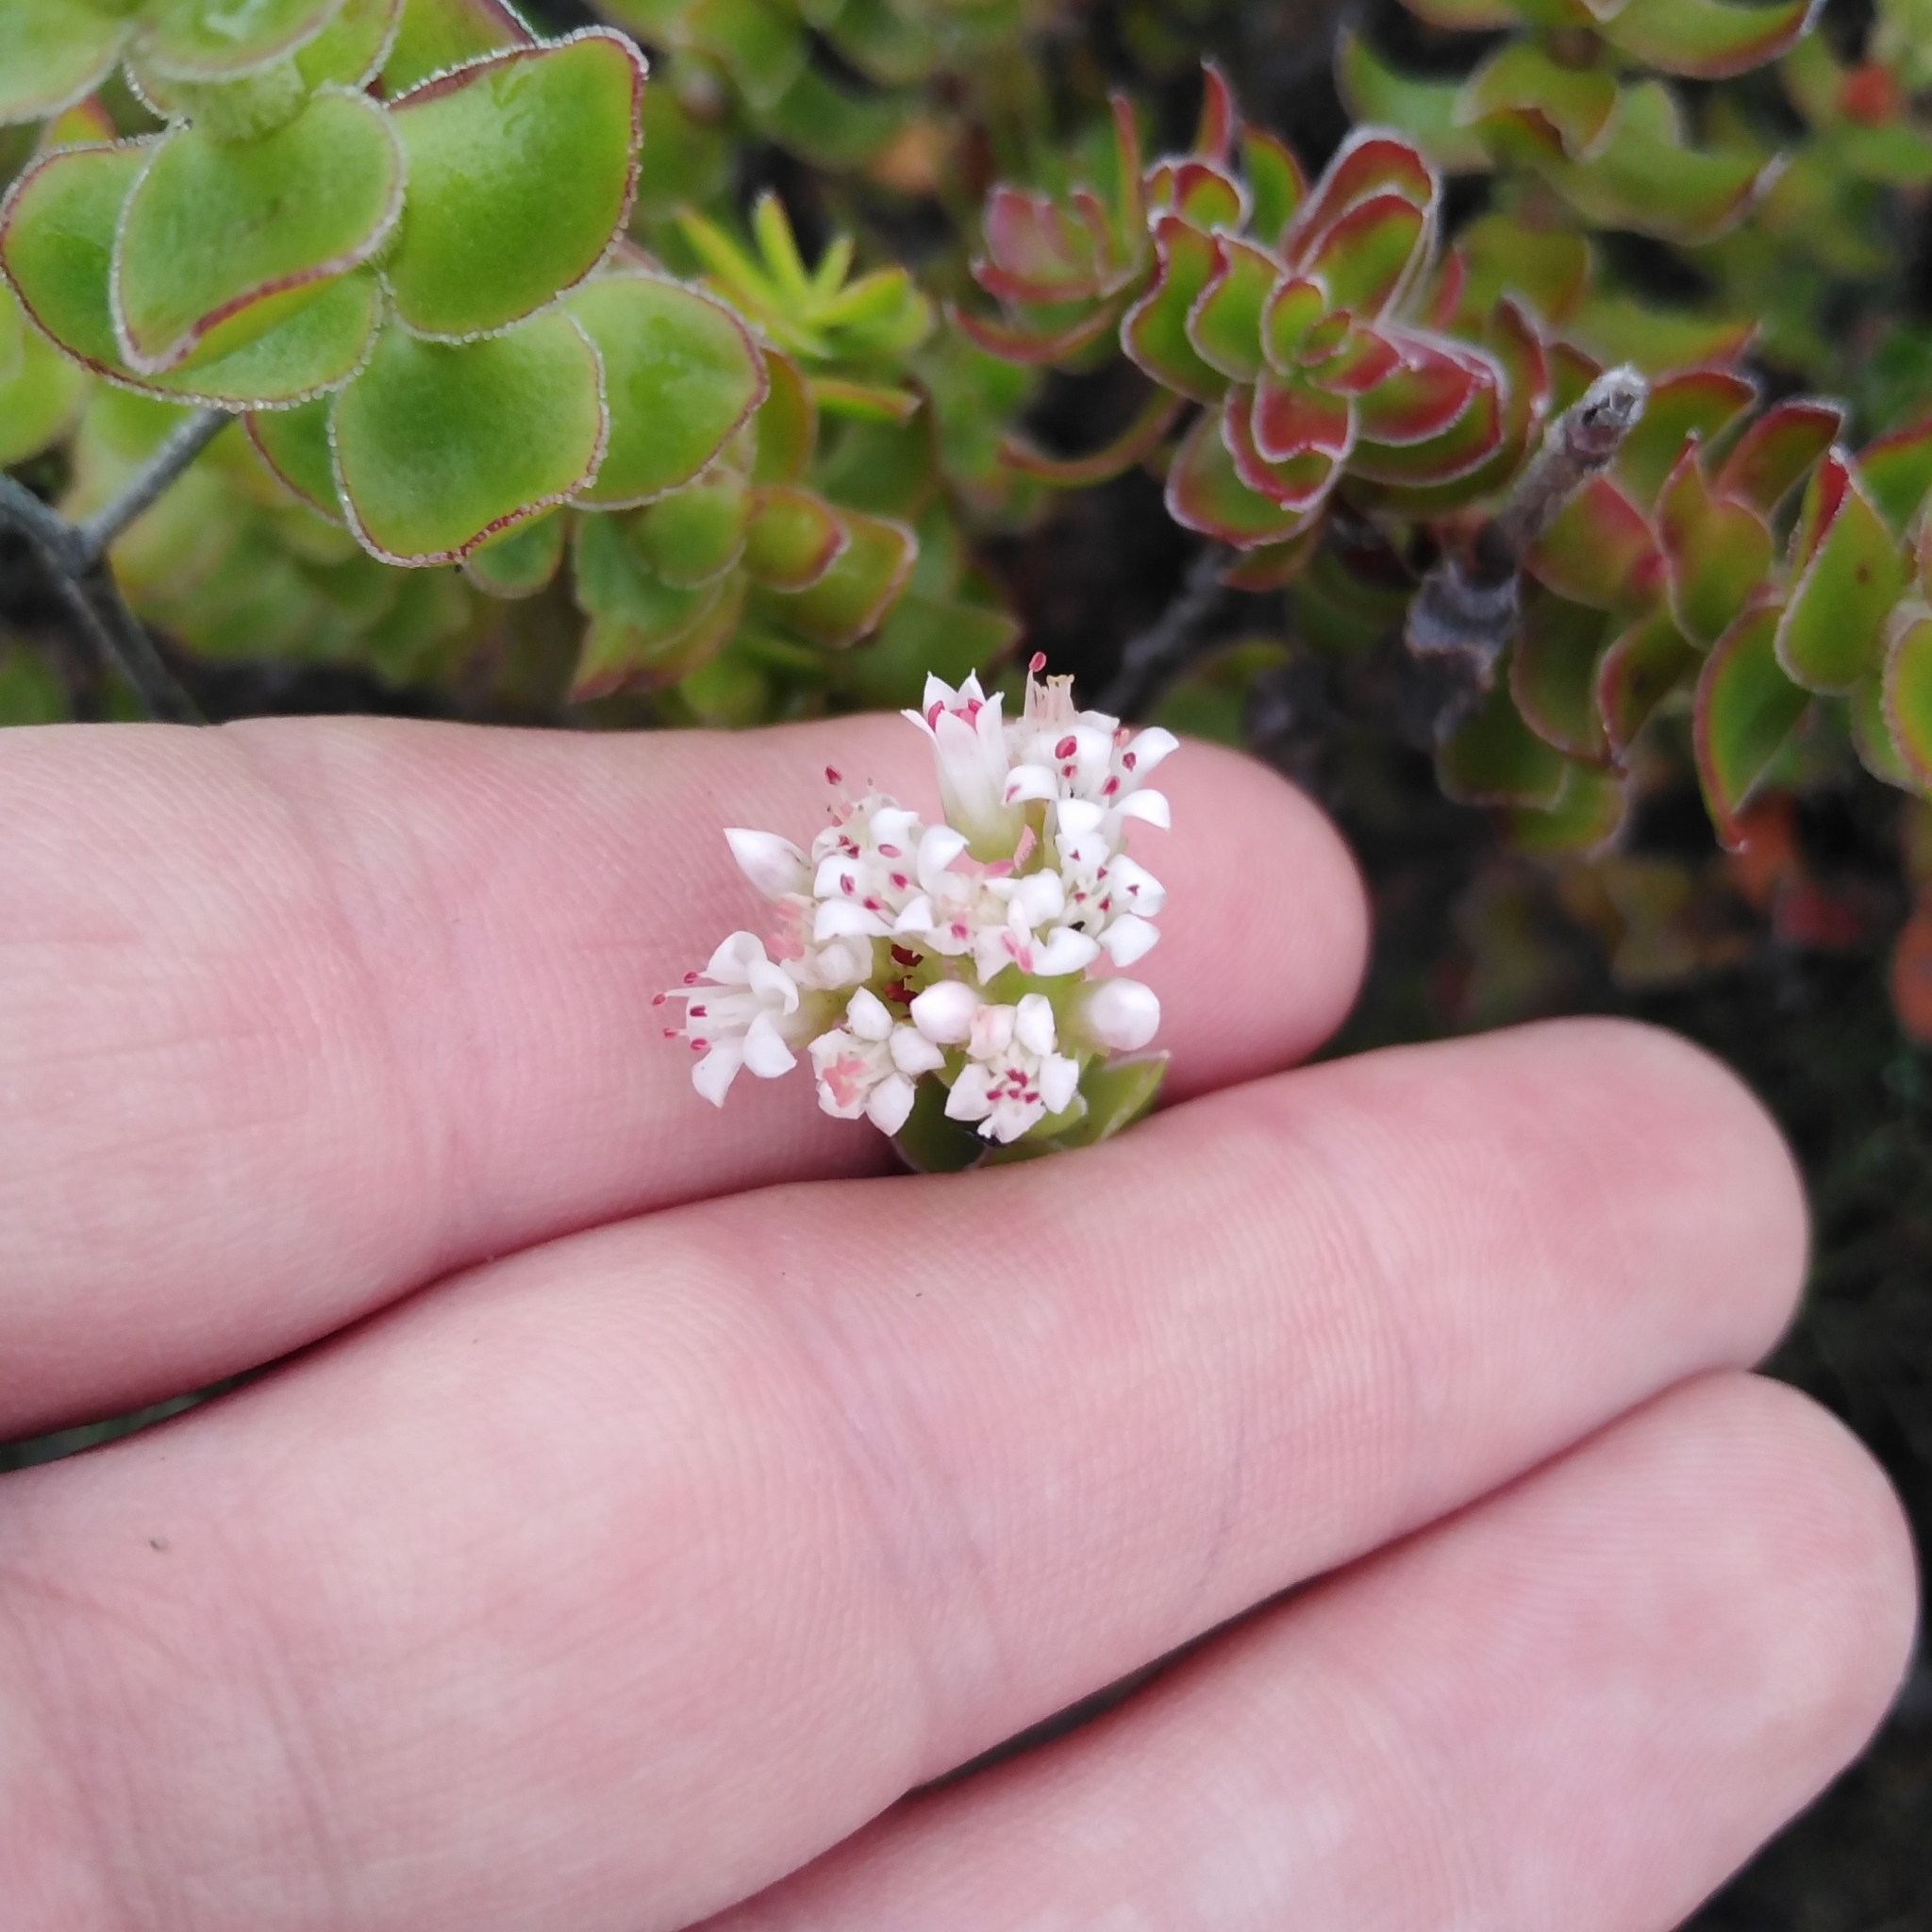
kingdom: Plantae
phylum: Tracheophyta
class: Magnoliopsida
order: Saxifragales
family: Crassulaceae
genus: Crassula
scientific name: Crassula undulata
